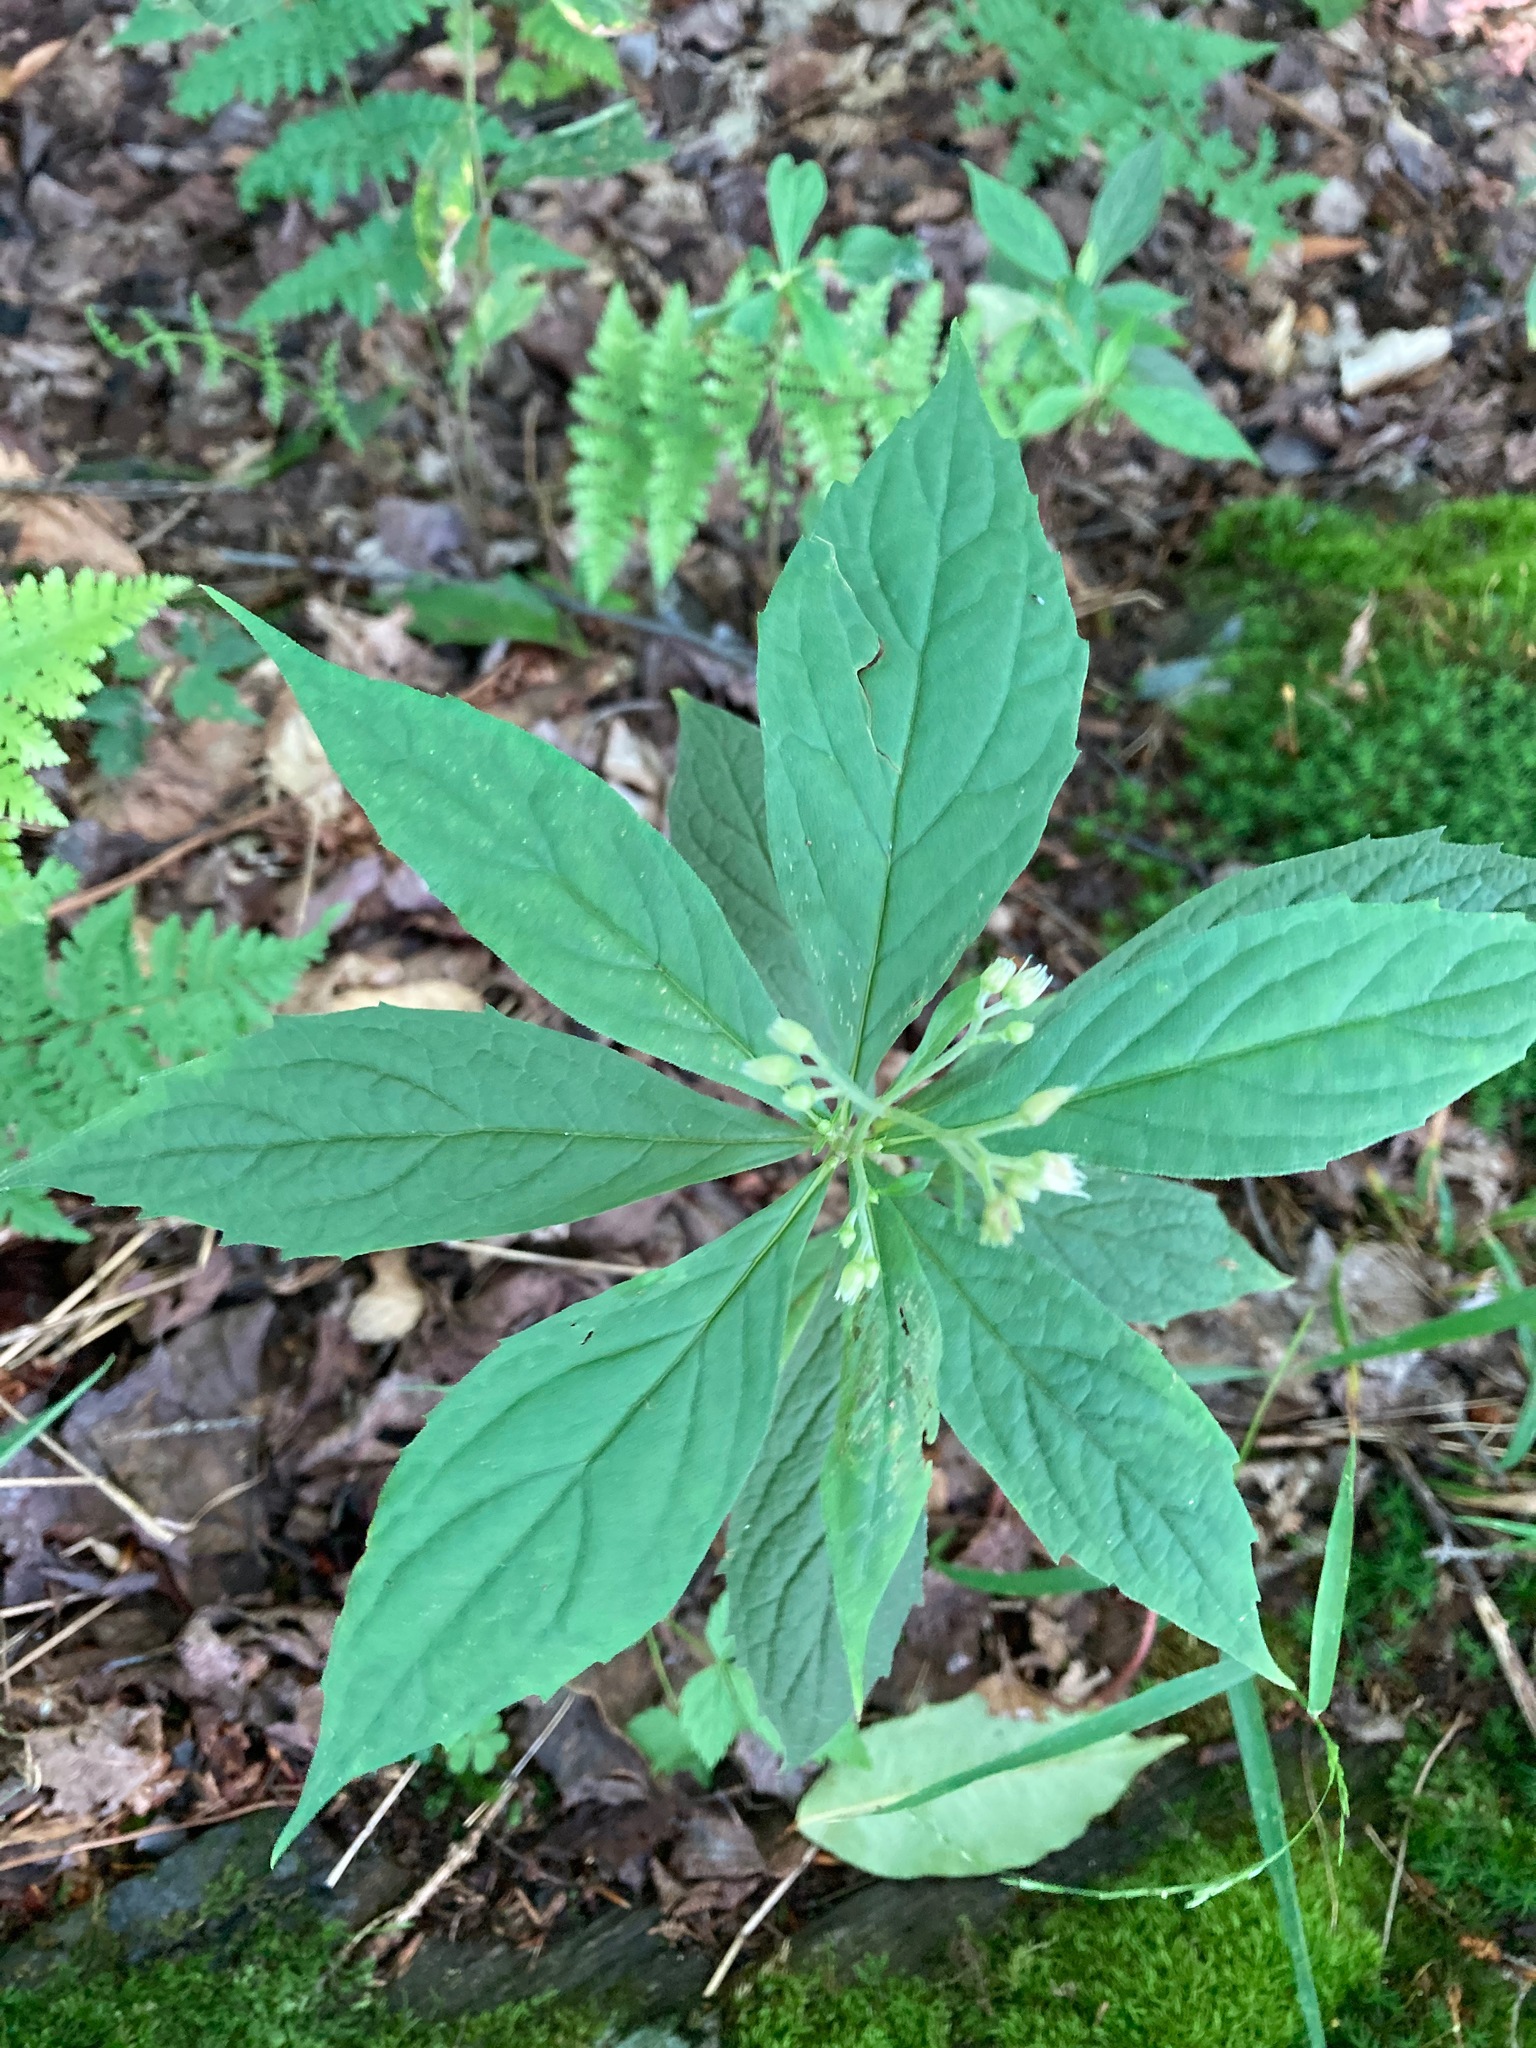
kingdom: Plantae
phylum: Tracheophyta
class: Magnoliopsida
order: Asterales
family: Asteraceae
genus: Oclemena
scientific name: Oclemena acuminata
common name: Mountain aster
